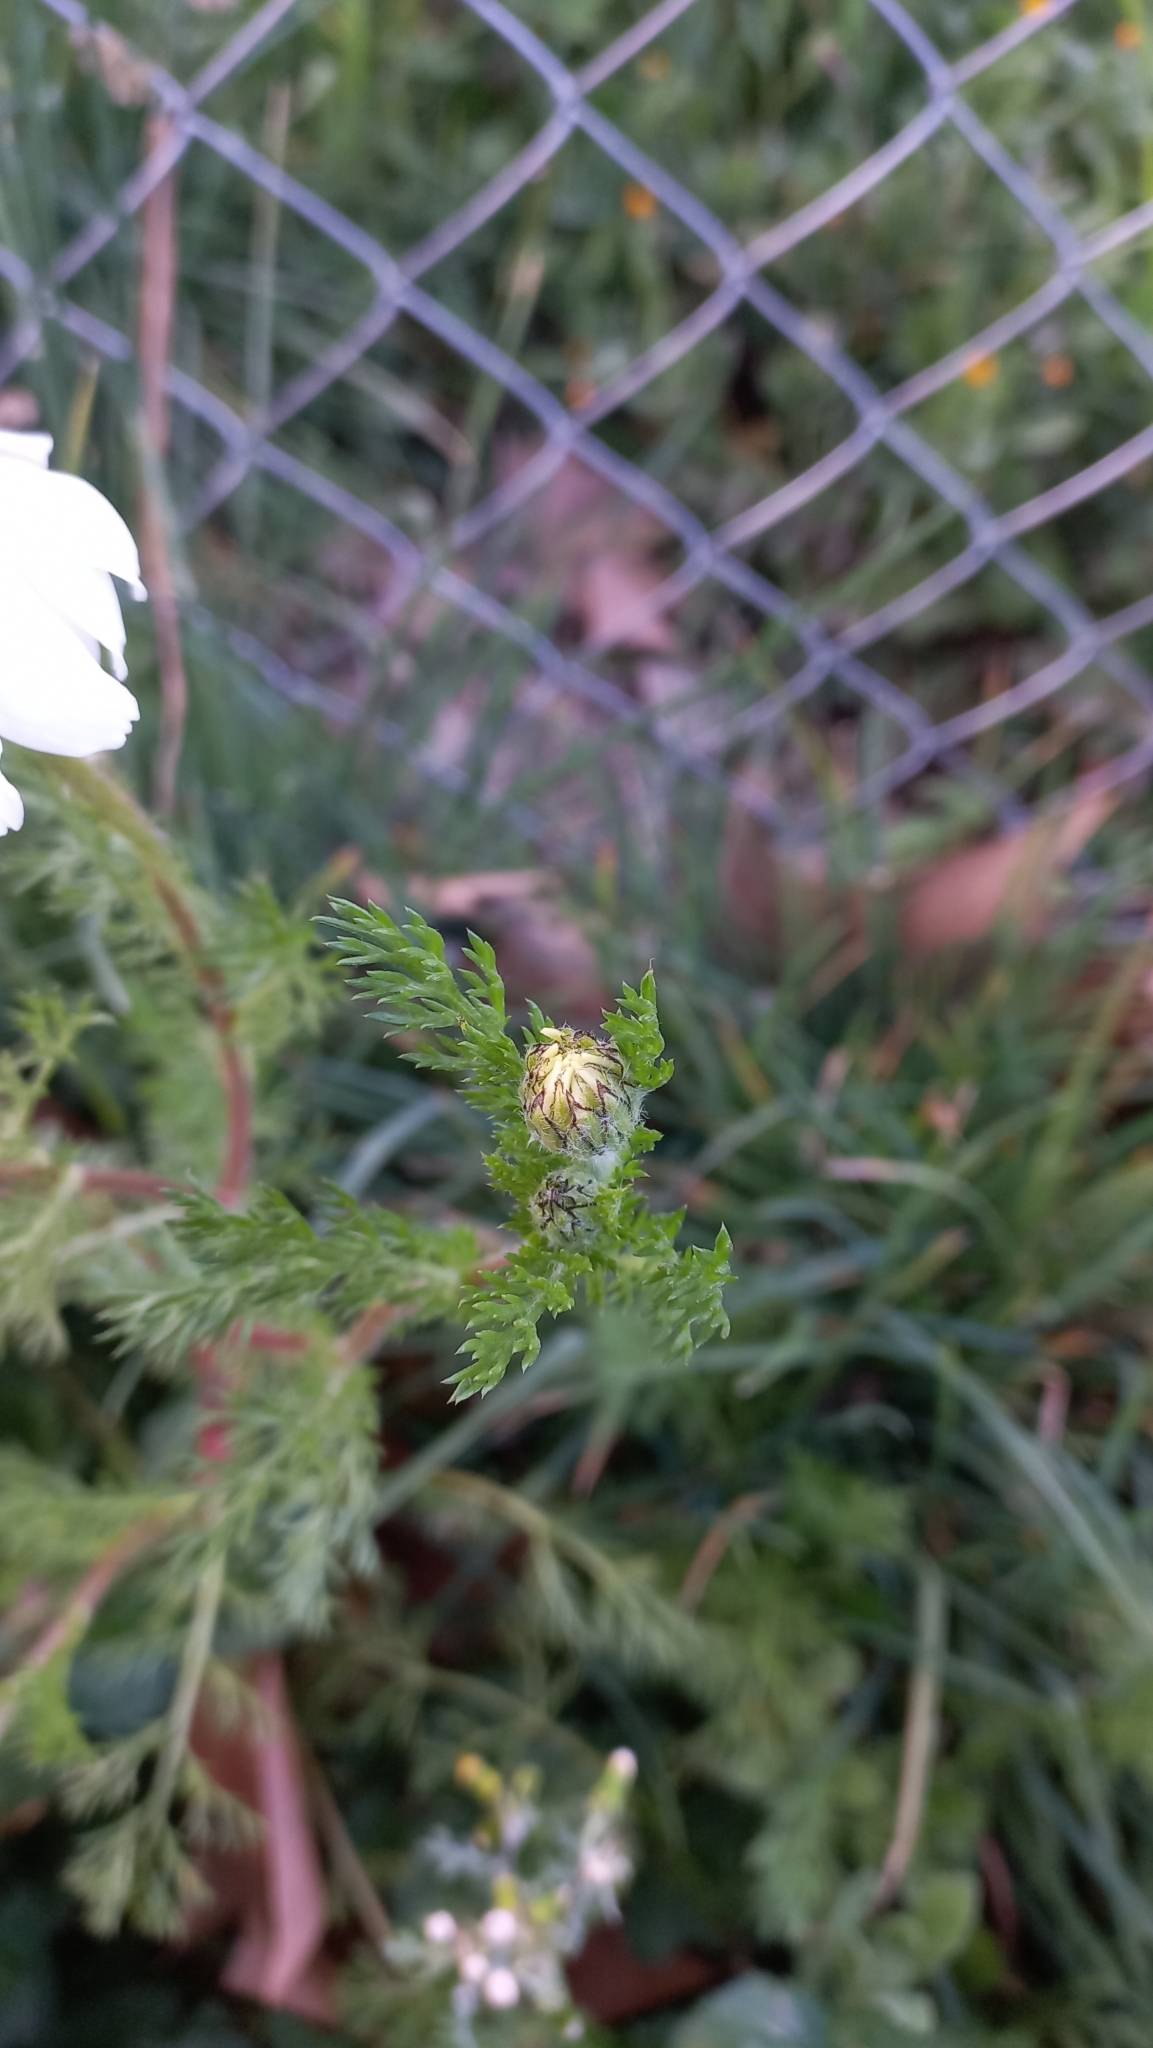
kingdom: Plantae
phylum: Tracheophyta
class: Magnoliopsida
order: Asterales
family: Asteraceae
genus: Anacyclus
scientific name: Anacyclus clavatus
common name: Whitebuttons
